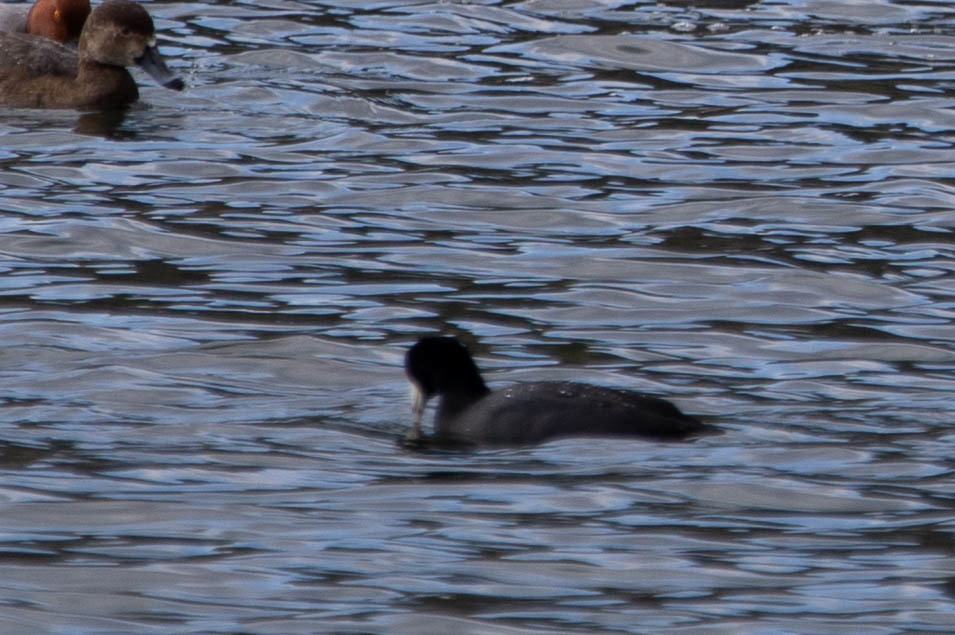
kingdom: Animalia
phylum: Chordata
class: Aves
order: Gruiformes
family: Rallidae
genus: Fulica
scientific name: Fulica americana
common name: American coot
